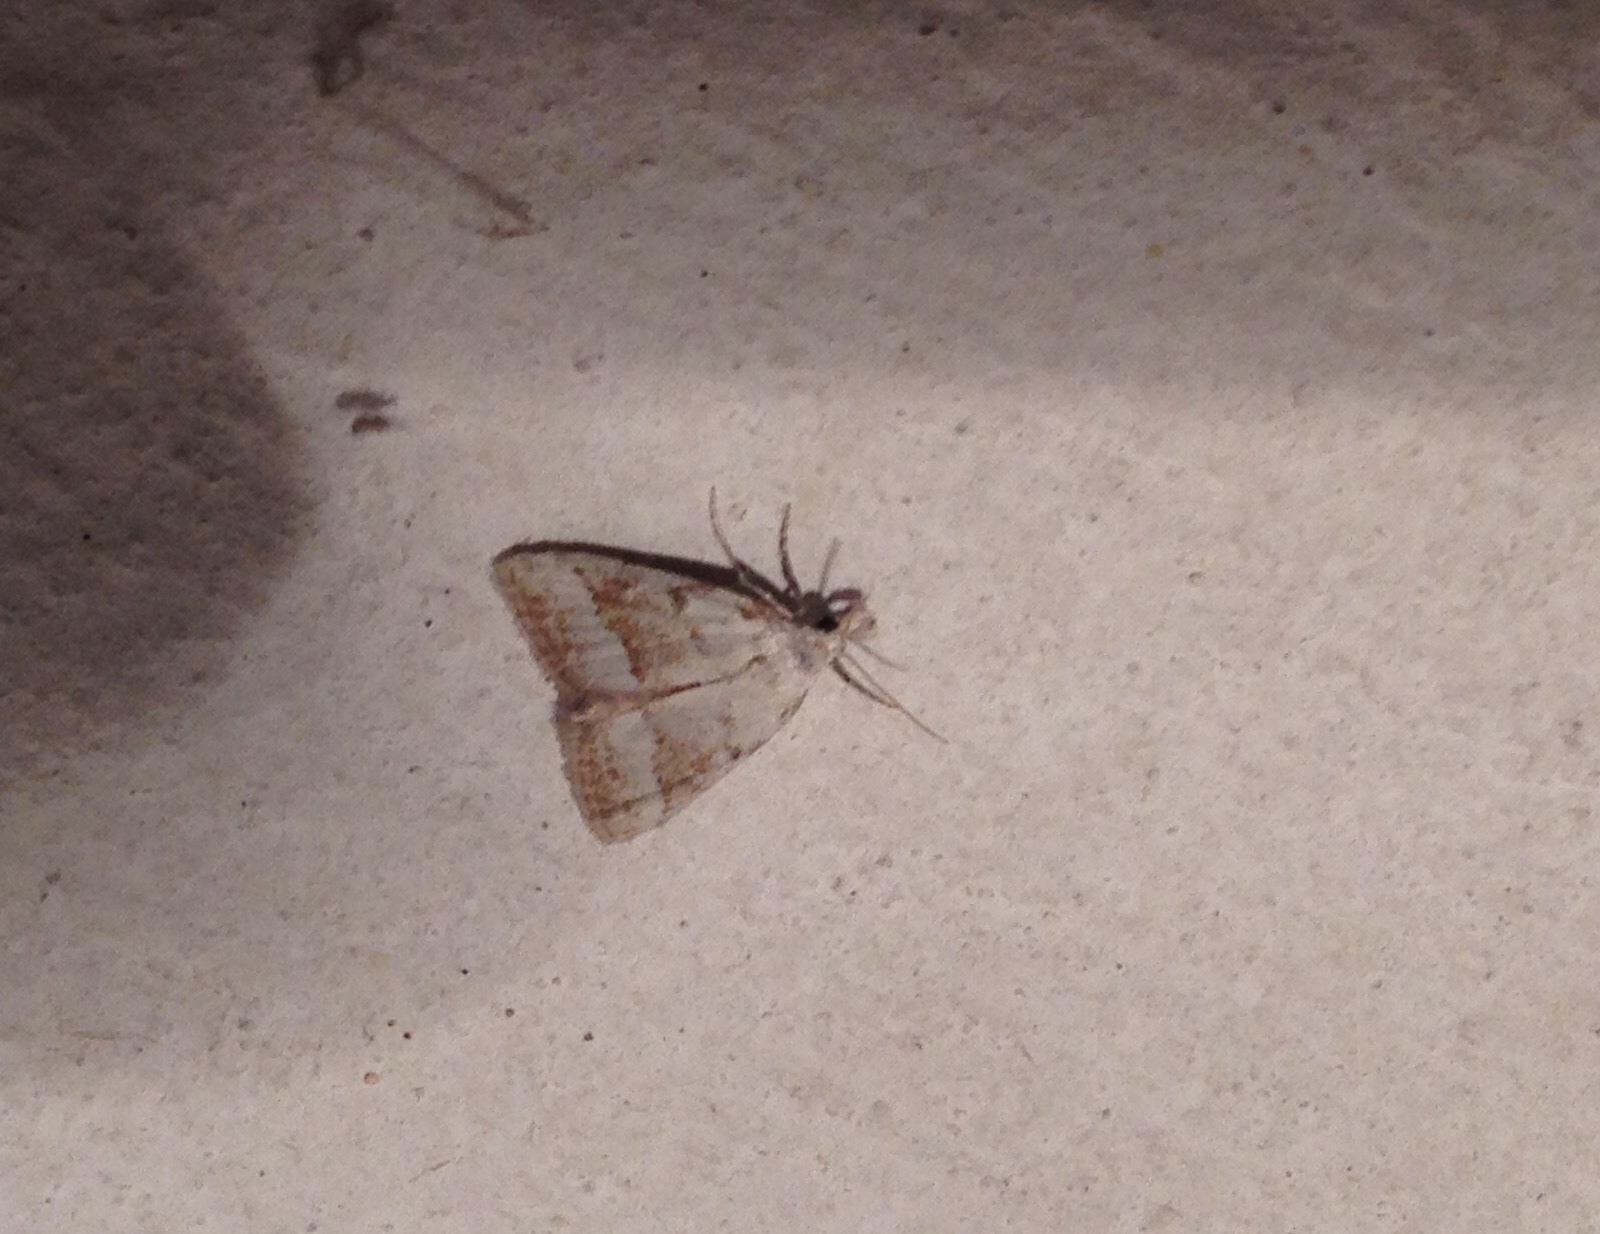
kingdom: Animalia
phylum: Arthropoda
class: Insecta
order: Lepidoptera
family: Nolidae
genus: Nola
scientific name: Nola aerugula
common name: Scarce black arches
